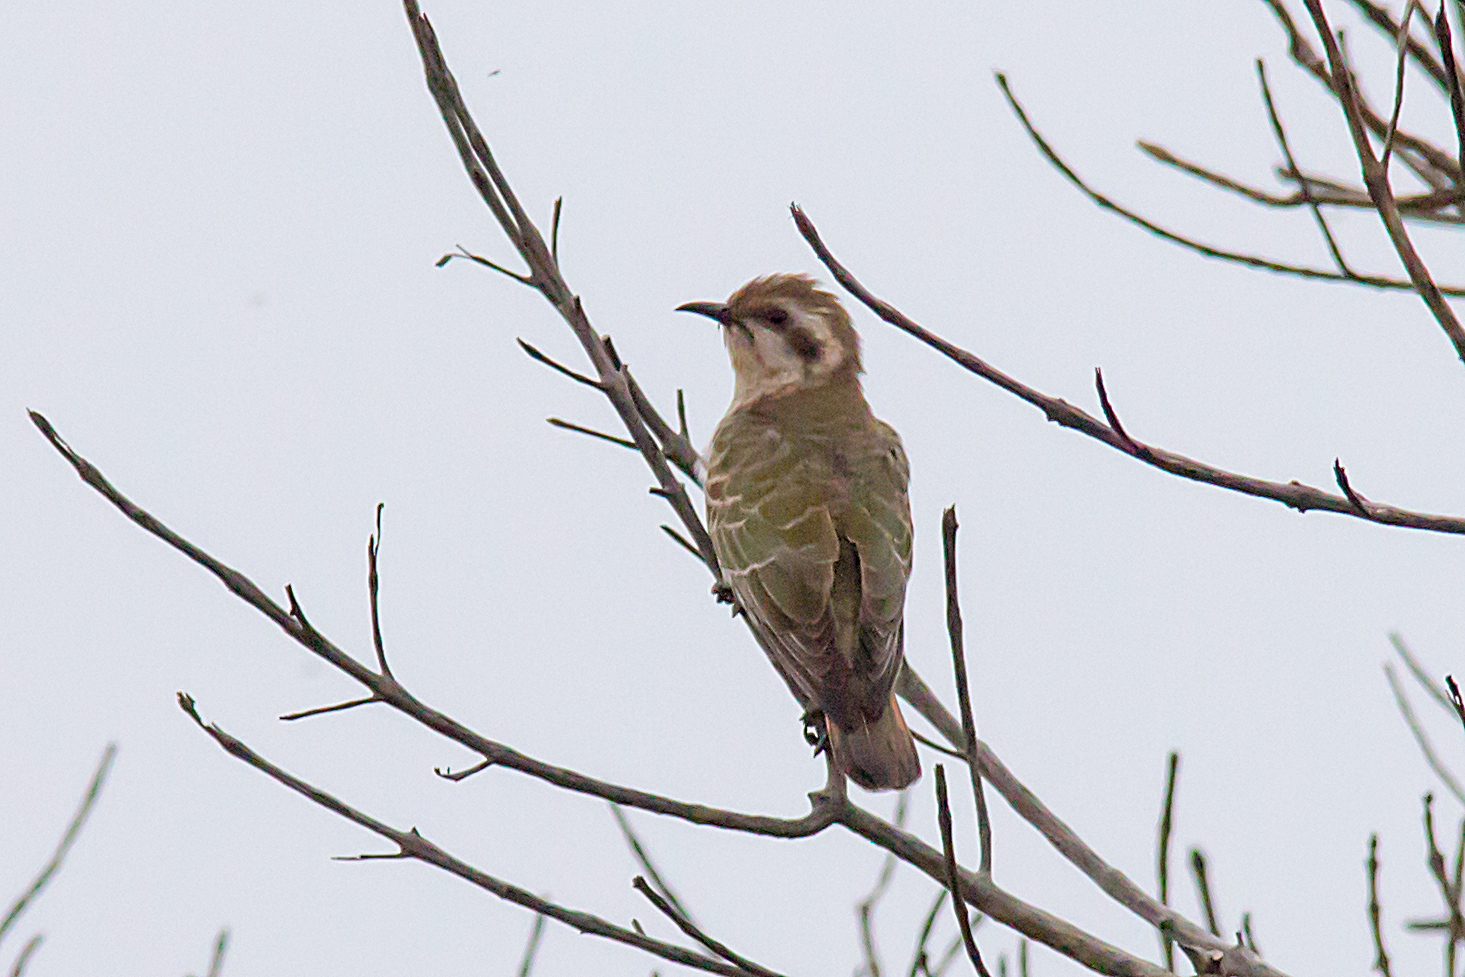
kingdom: Animalia
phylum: Chordata
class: Aves
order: Cuculiformes
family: Cuculidae
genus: Chrysococcyx
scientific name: Chrysococcyx basalis
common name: Horsfield's bronze cuckoo
